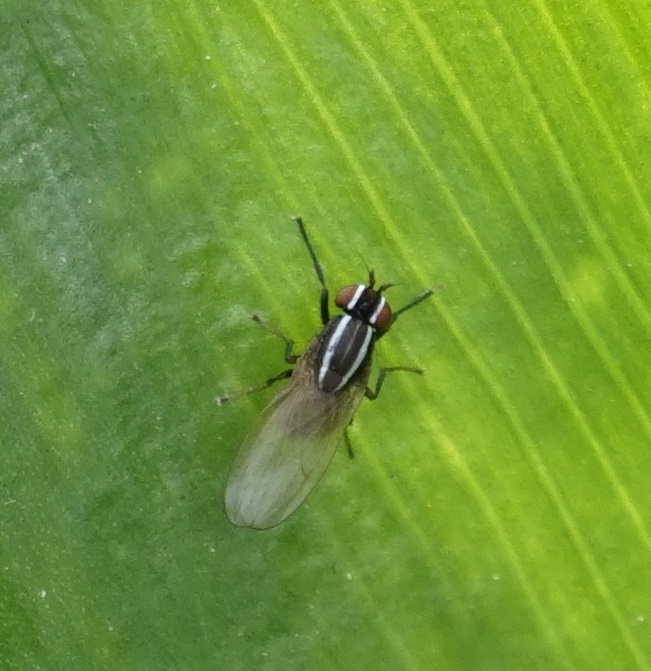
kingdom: Animalia
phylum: Arthropoda
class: Insecta
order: Diptera
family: Lauxaniidae
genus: Poecilohetaerus
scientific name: Poecilohetaerus aquilus
